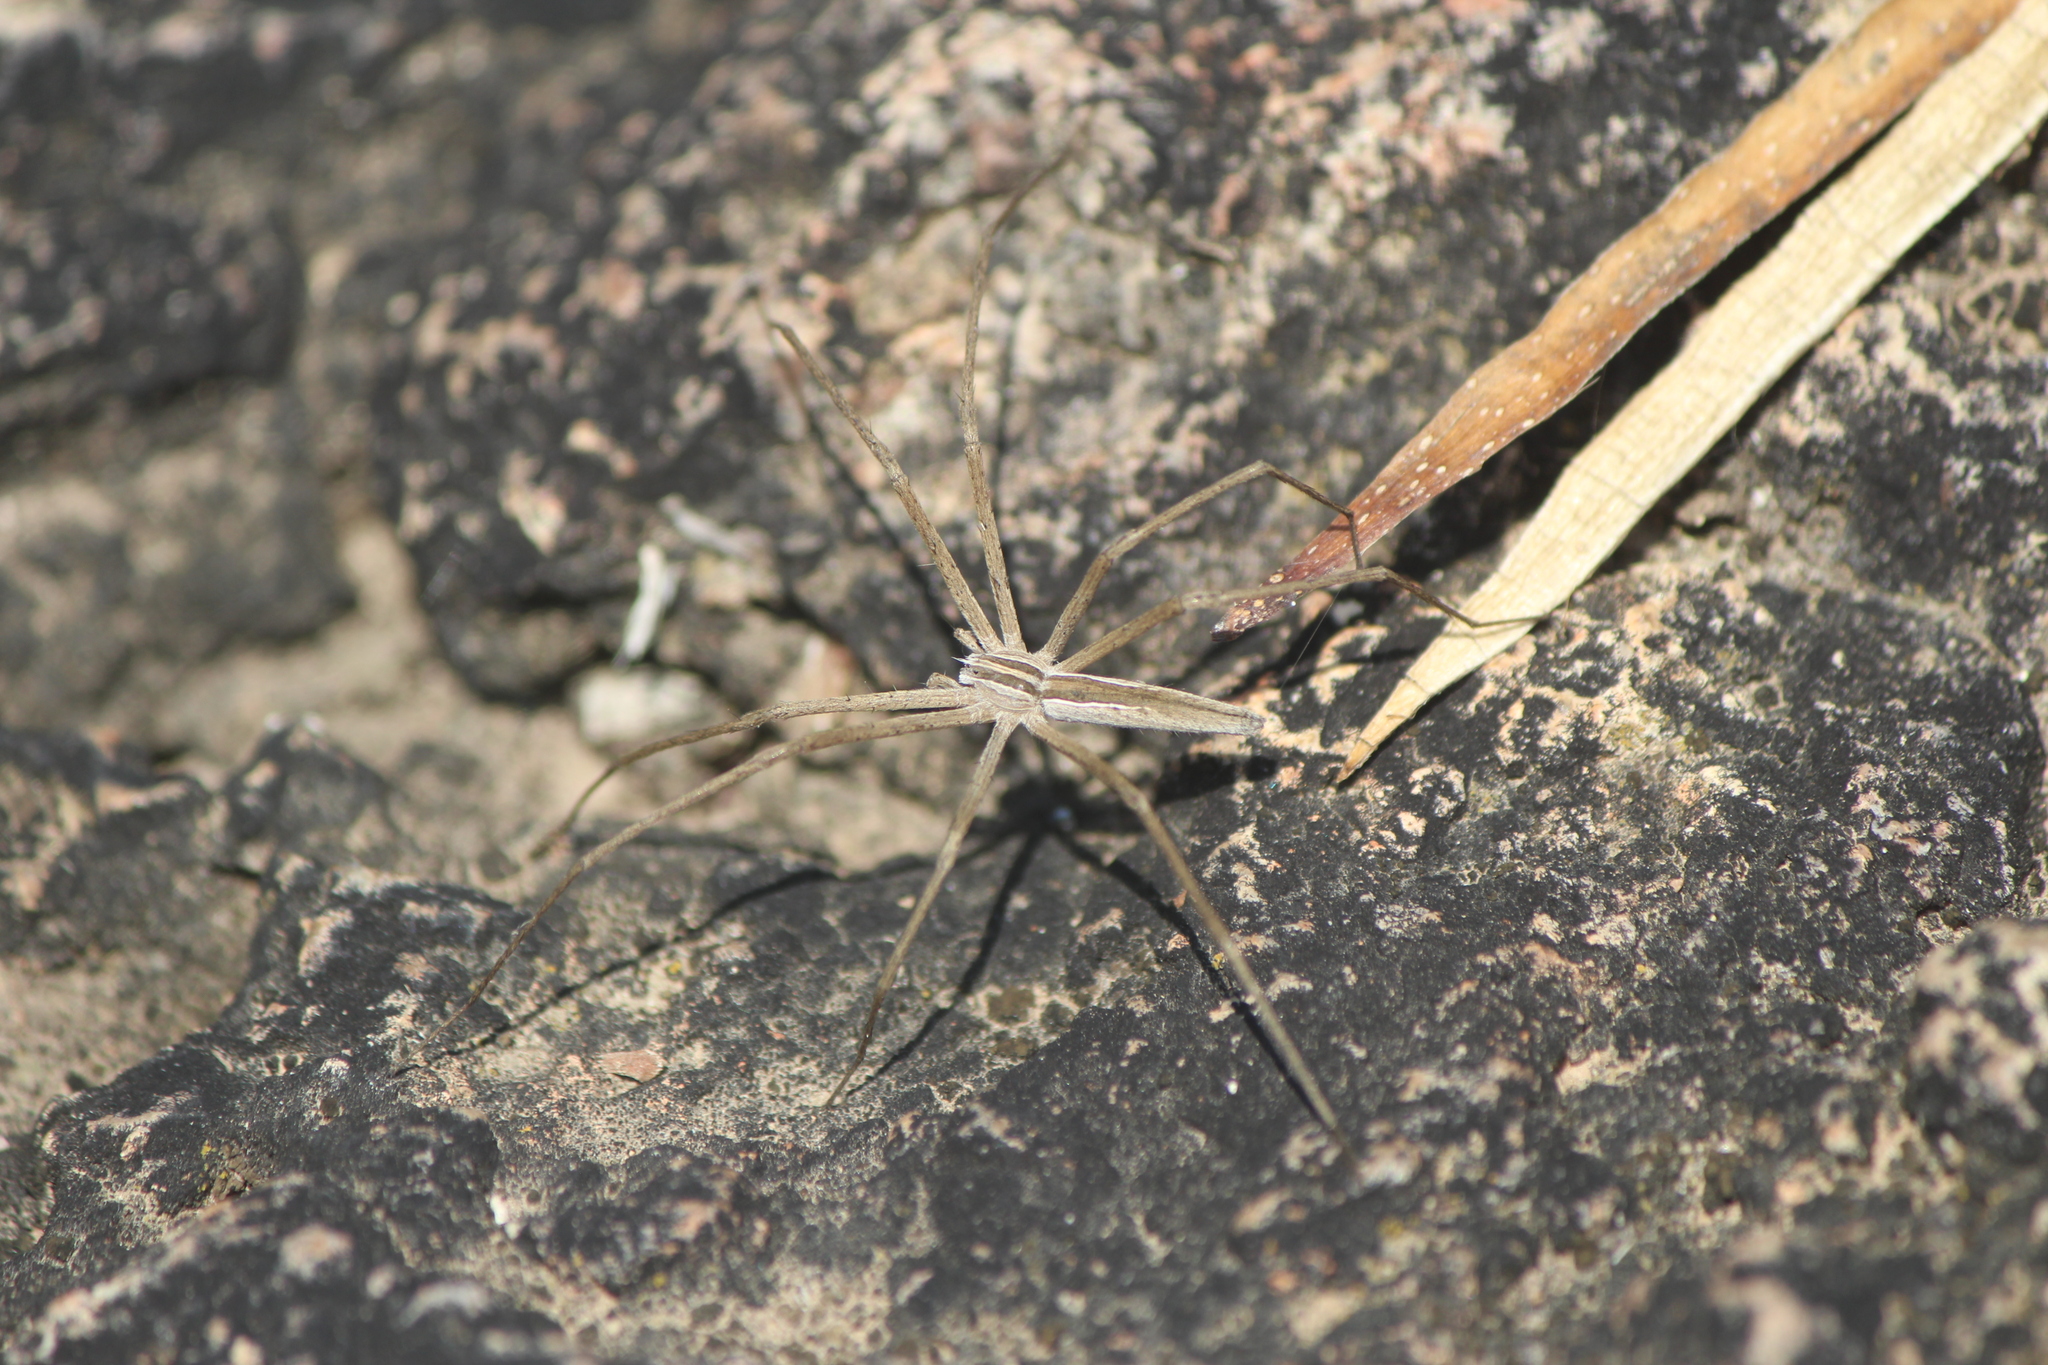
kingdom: Animalia
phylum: Arthropoda
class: Arachnida
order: Araneae
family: Pisauridae
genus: Pisaurina
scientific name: Pisaurina dubia
